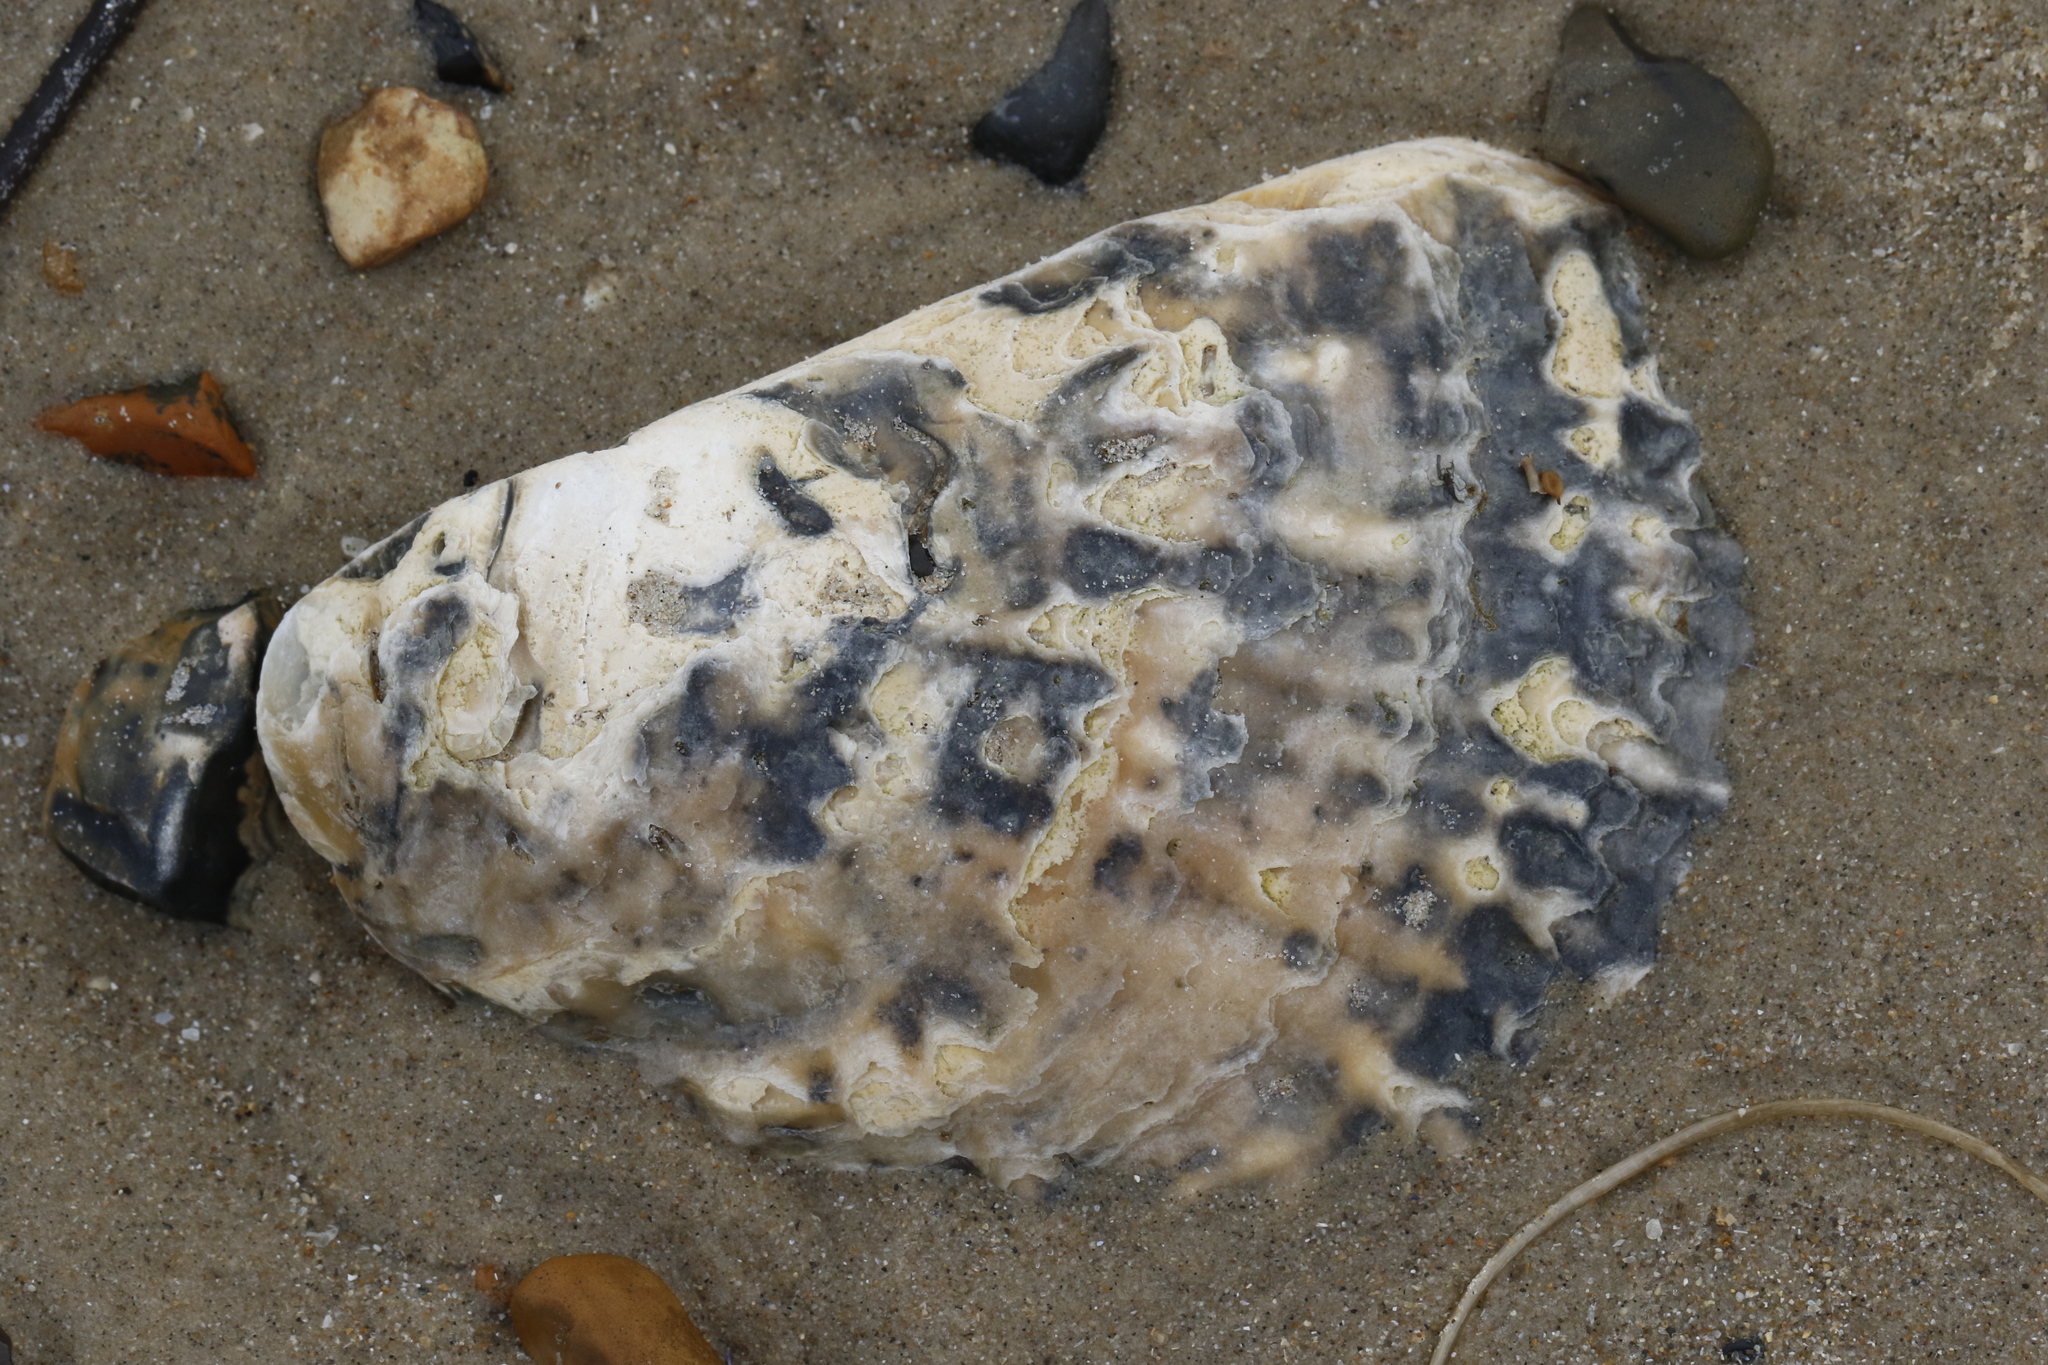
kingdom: Animalia
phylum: Mollusca
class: Bivalvia
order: Ostreida
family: Ostreidae
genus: Ostrea
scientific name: Ostrea edulis
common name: Flat oyster
